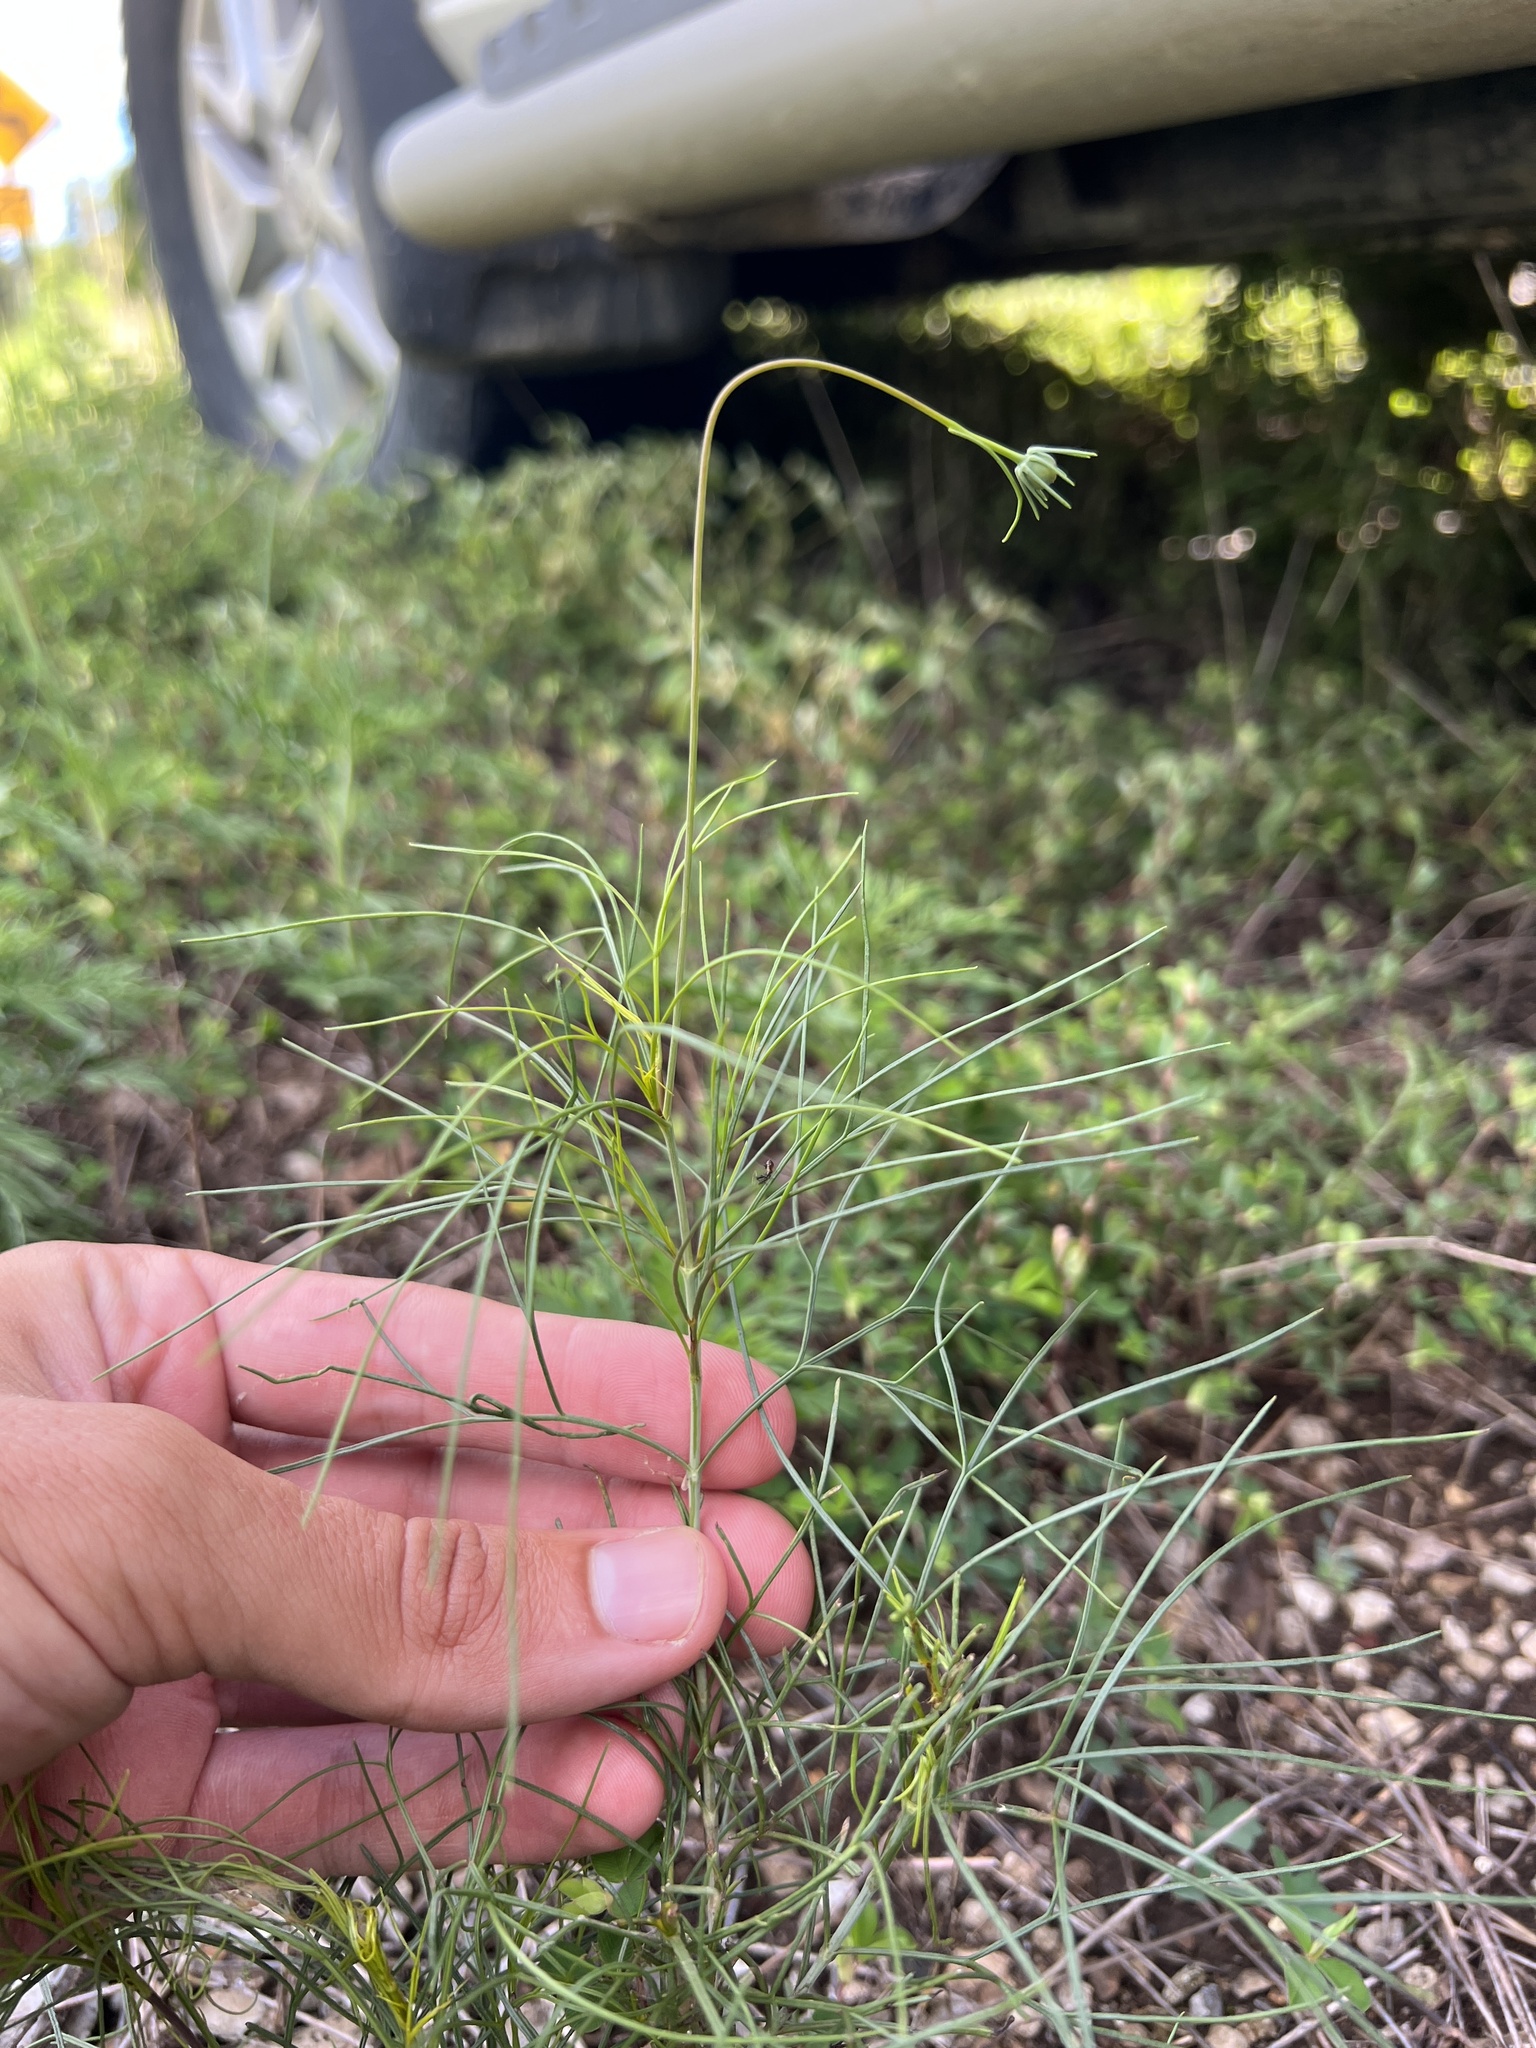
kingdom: Plantae
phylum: Tracheophyta
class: Magnoliopsida
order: Asterales
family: Asteraceae
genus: Thelesperma
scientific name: Thelesperma filifolium
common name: Stiff greenthread
